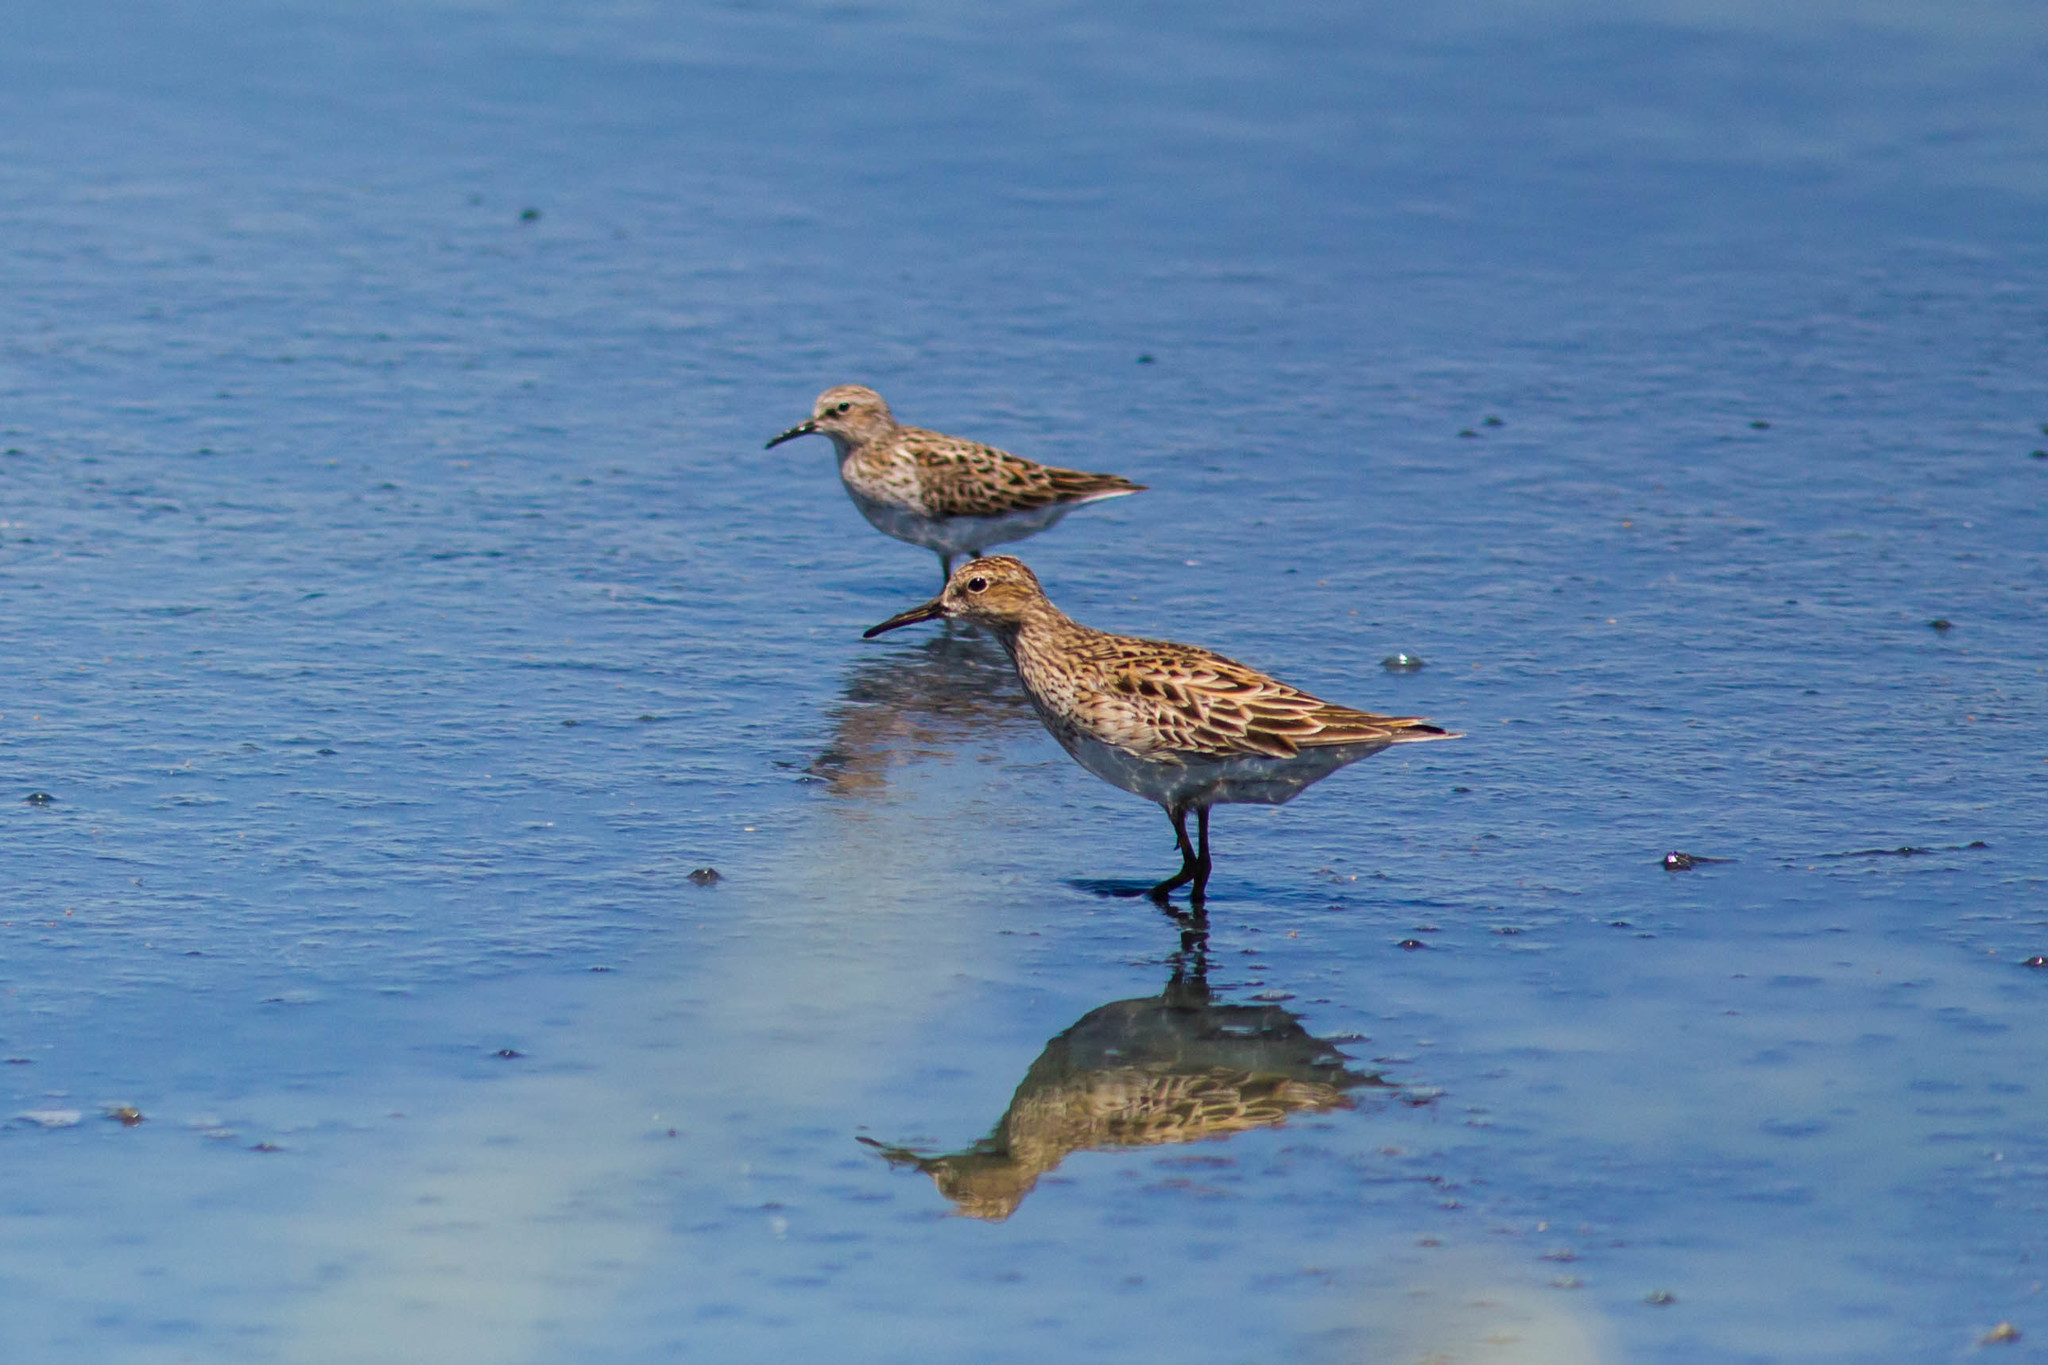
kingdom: Animalia
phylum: Chordata
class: Aves
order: Charadriiformes
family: Scolopacidae
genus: Calidris
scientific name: Calidris melanotos
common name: Pectoral sandpiper
